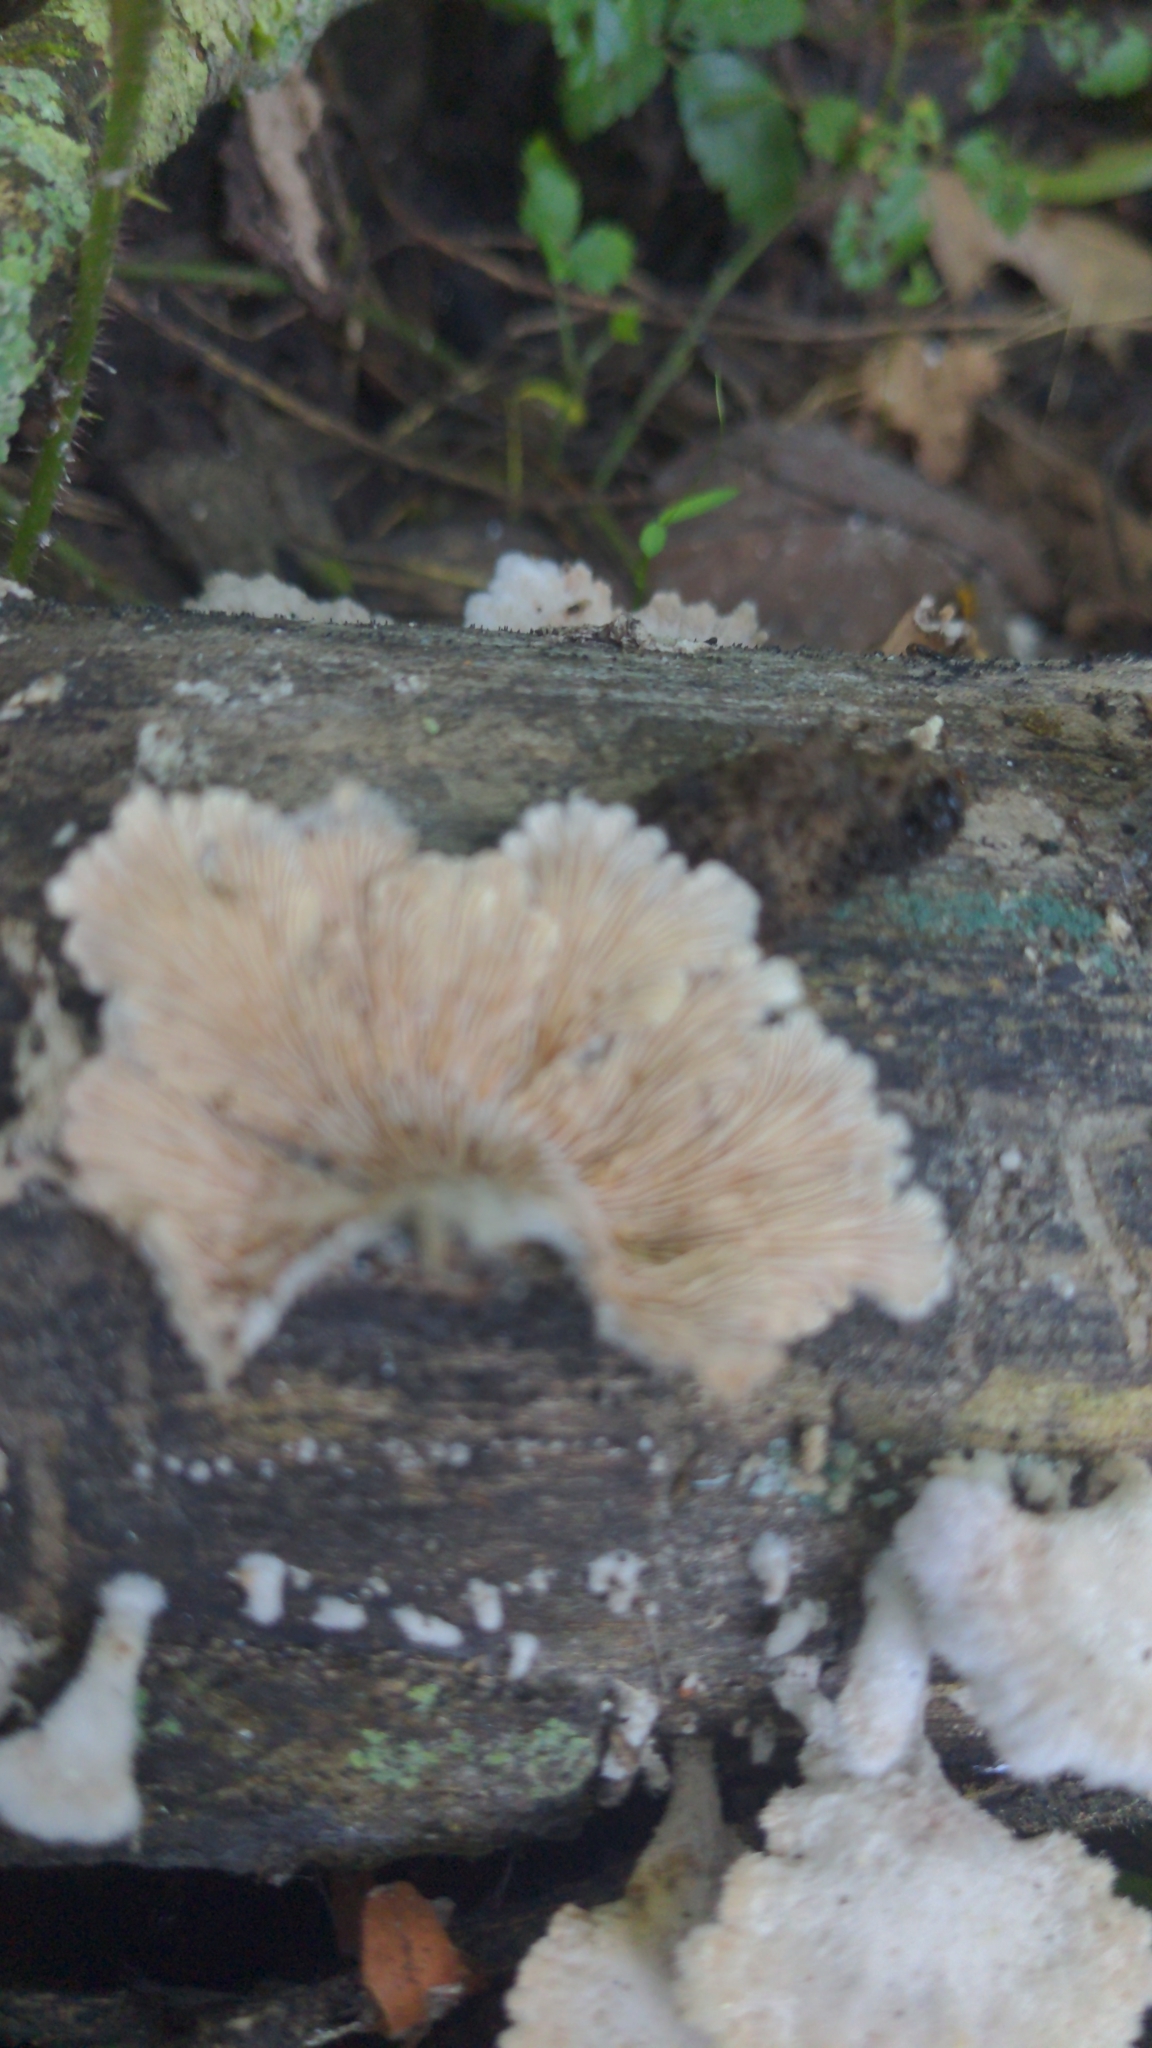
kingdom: Fungi
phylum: Basidiomycota
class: Agaricomycetes
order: Agaricales
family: Schizophyllaceae
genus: Schizophyllum
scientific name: Schizophyllum commune
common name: Common porecrust
